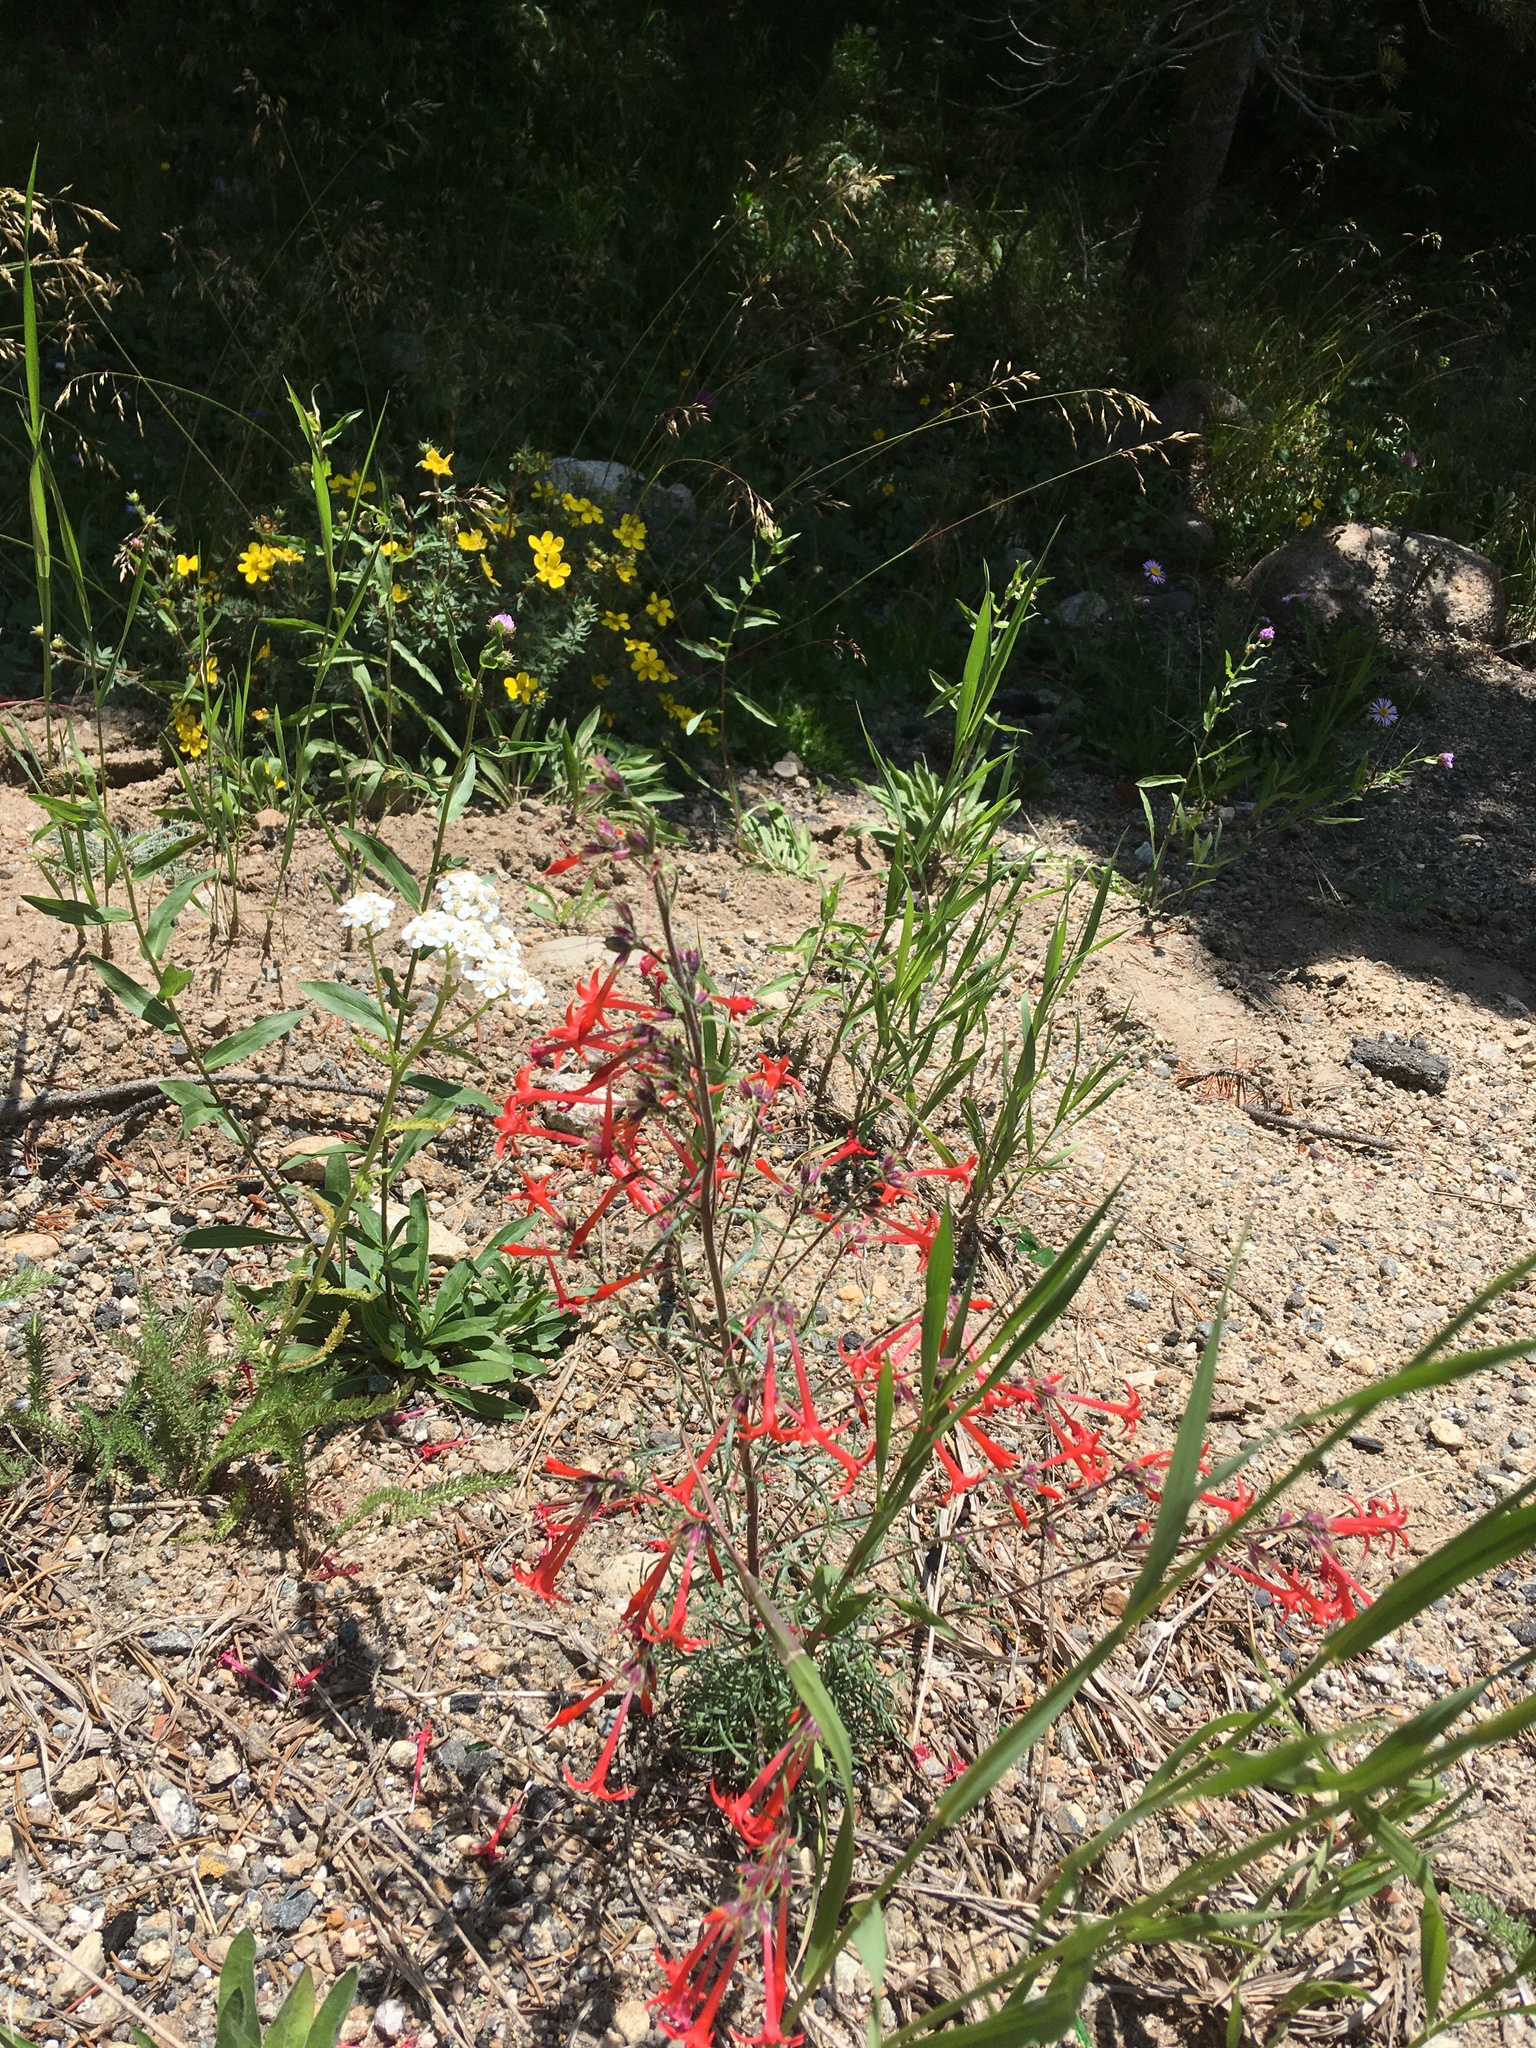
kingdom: Plantae
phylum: Tracheophyta
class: Magnoliopsida
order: Ericales
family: Polemoniaceae
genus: Ipomopsis
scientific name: Ipomopsis aggregata
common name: Scarlet gilia
